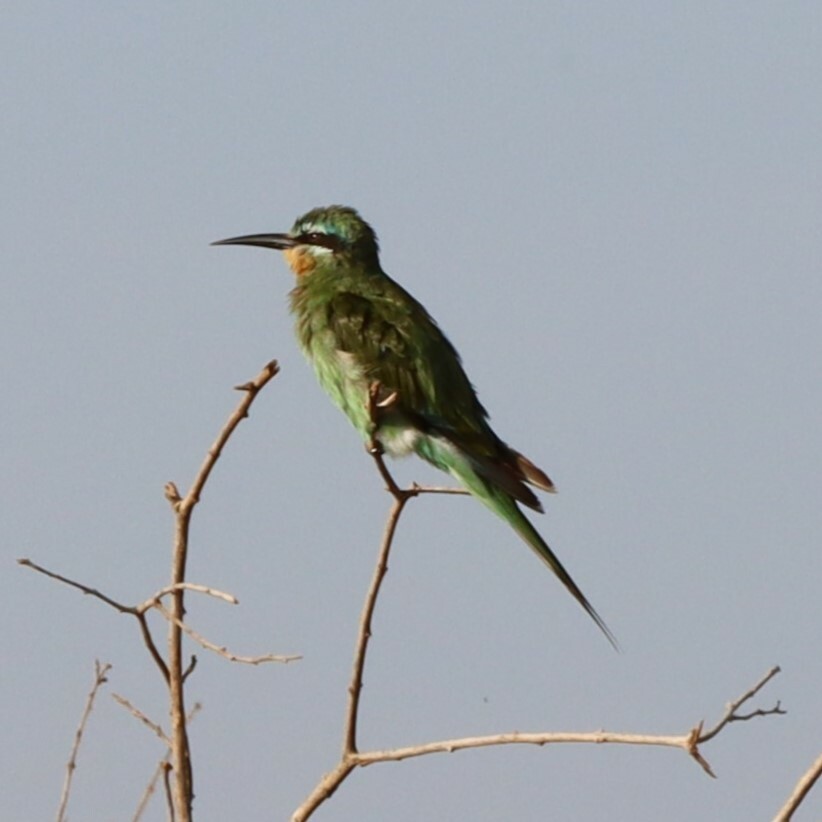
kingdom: Animalia
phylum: Chordata
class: Aves
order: Coraciiformes
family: Meropidae
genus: Merops
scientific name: Merops persicus
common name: Blue-cheeked bee-eater
